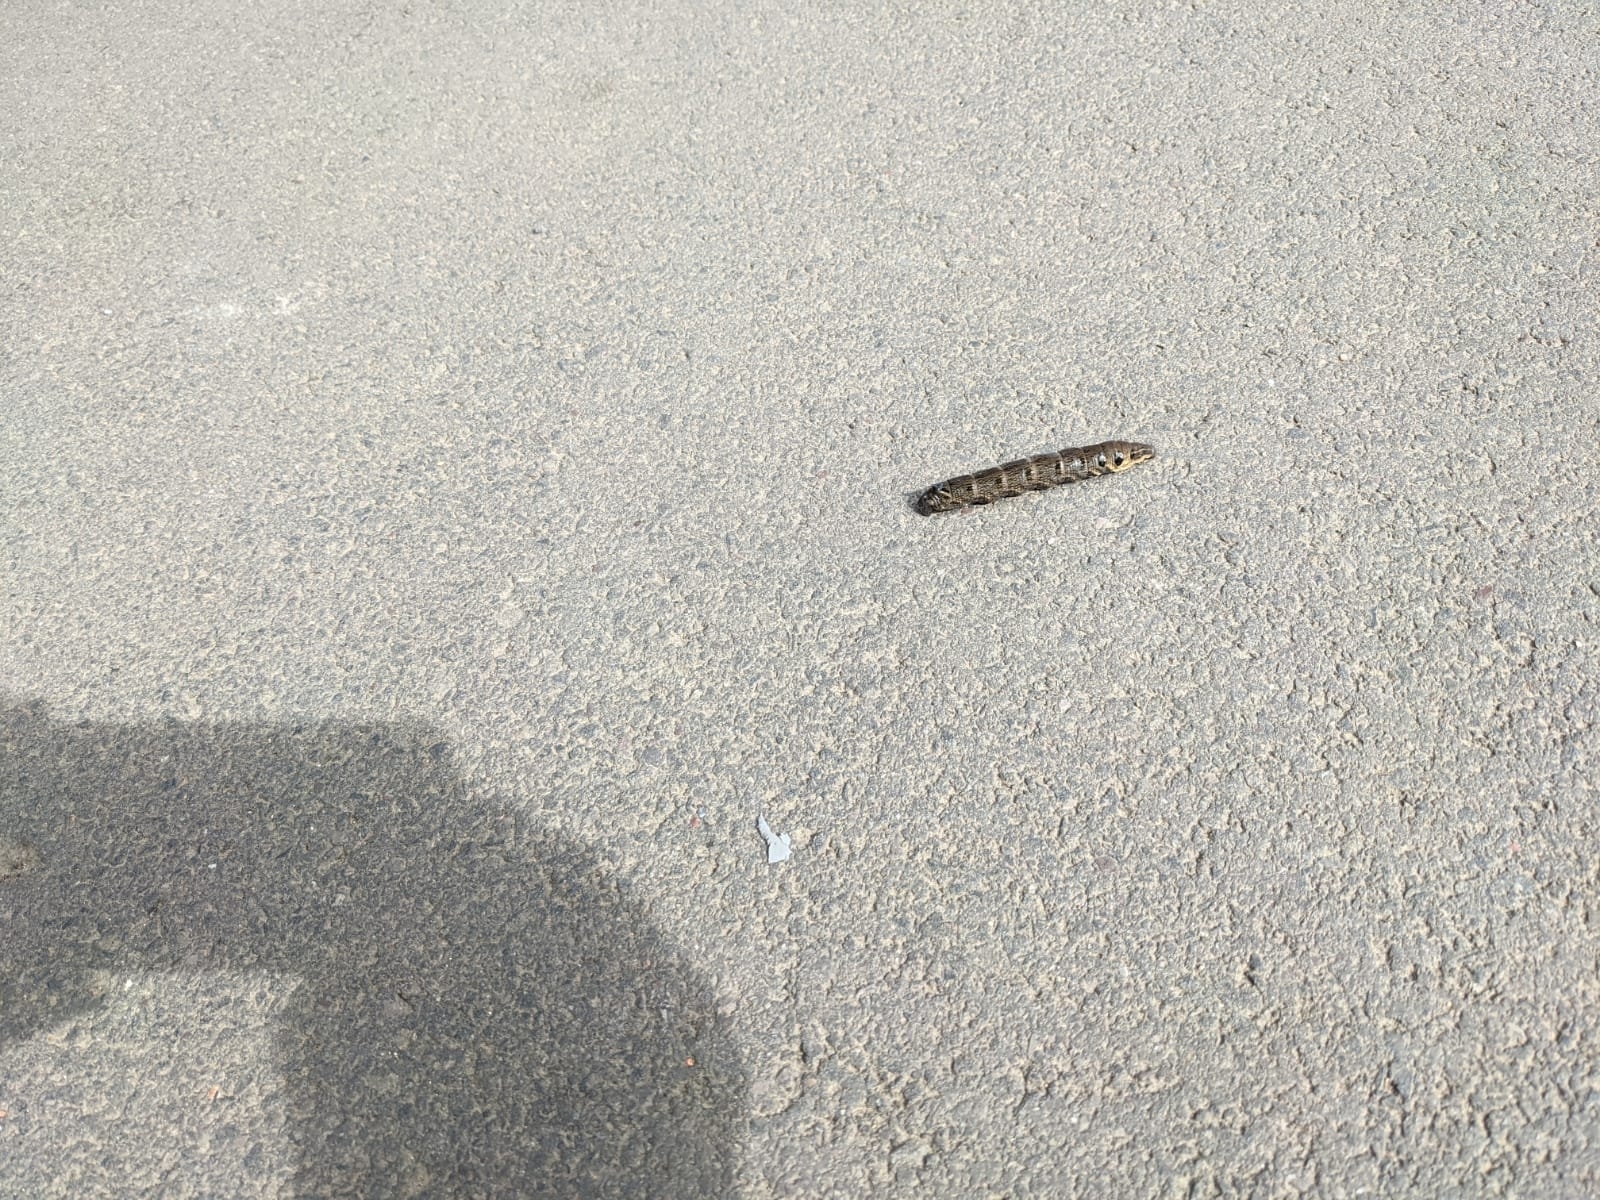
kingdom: Animalia
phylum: Arthropoda
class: Insecta
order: Lepidoptera
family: Sphingidae
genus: Deilephila
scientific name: Deilephila elpenor
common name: Elephant hawk-moth
